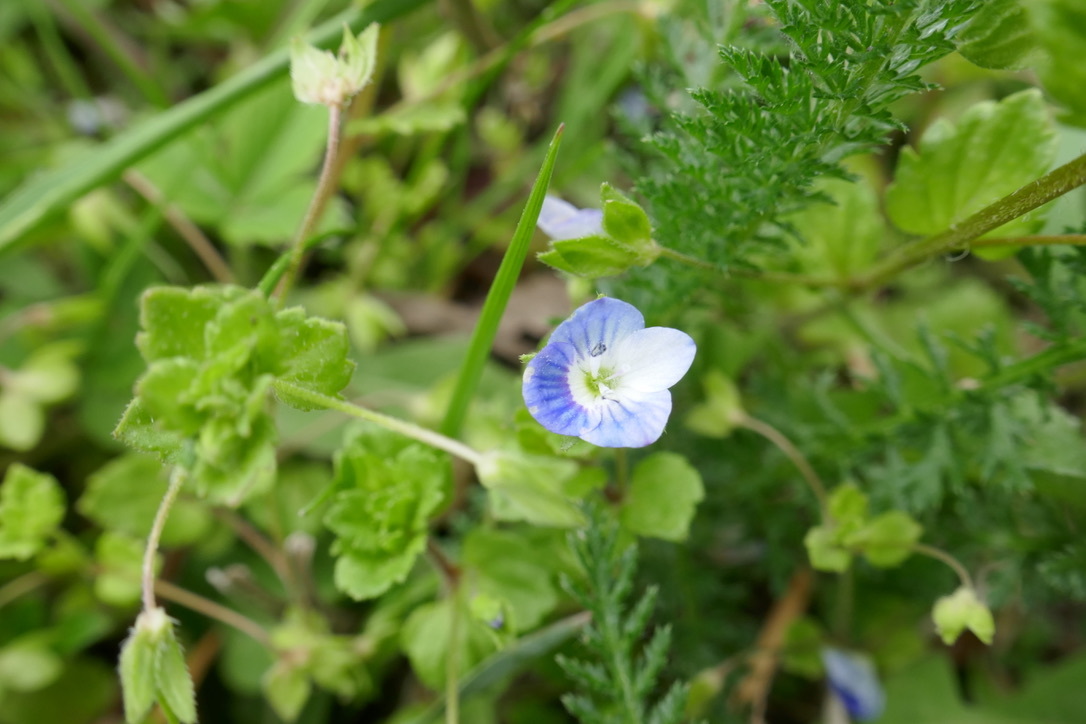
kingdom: Plantae
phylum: Tracheophyta
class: Magnoliopsida
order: Lamiales
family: Plantaginaceae
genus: Veronica
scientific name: Veronica persica
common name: Common field-speedwell
